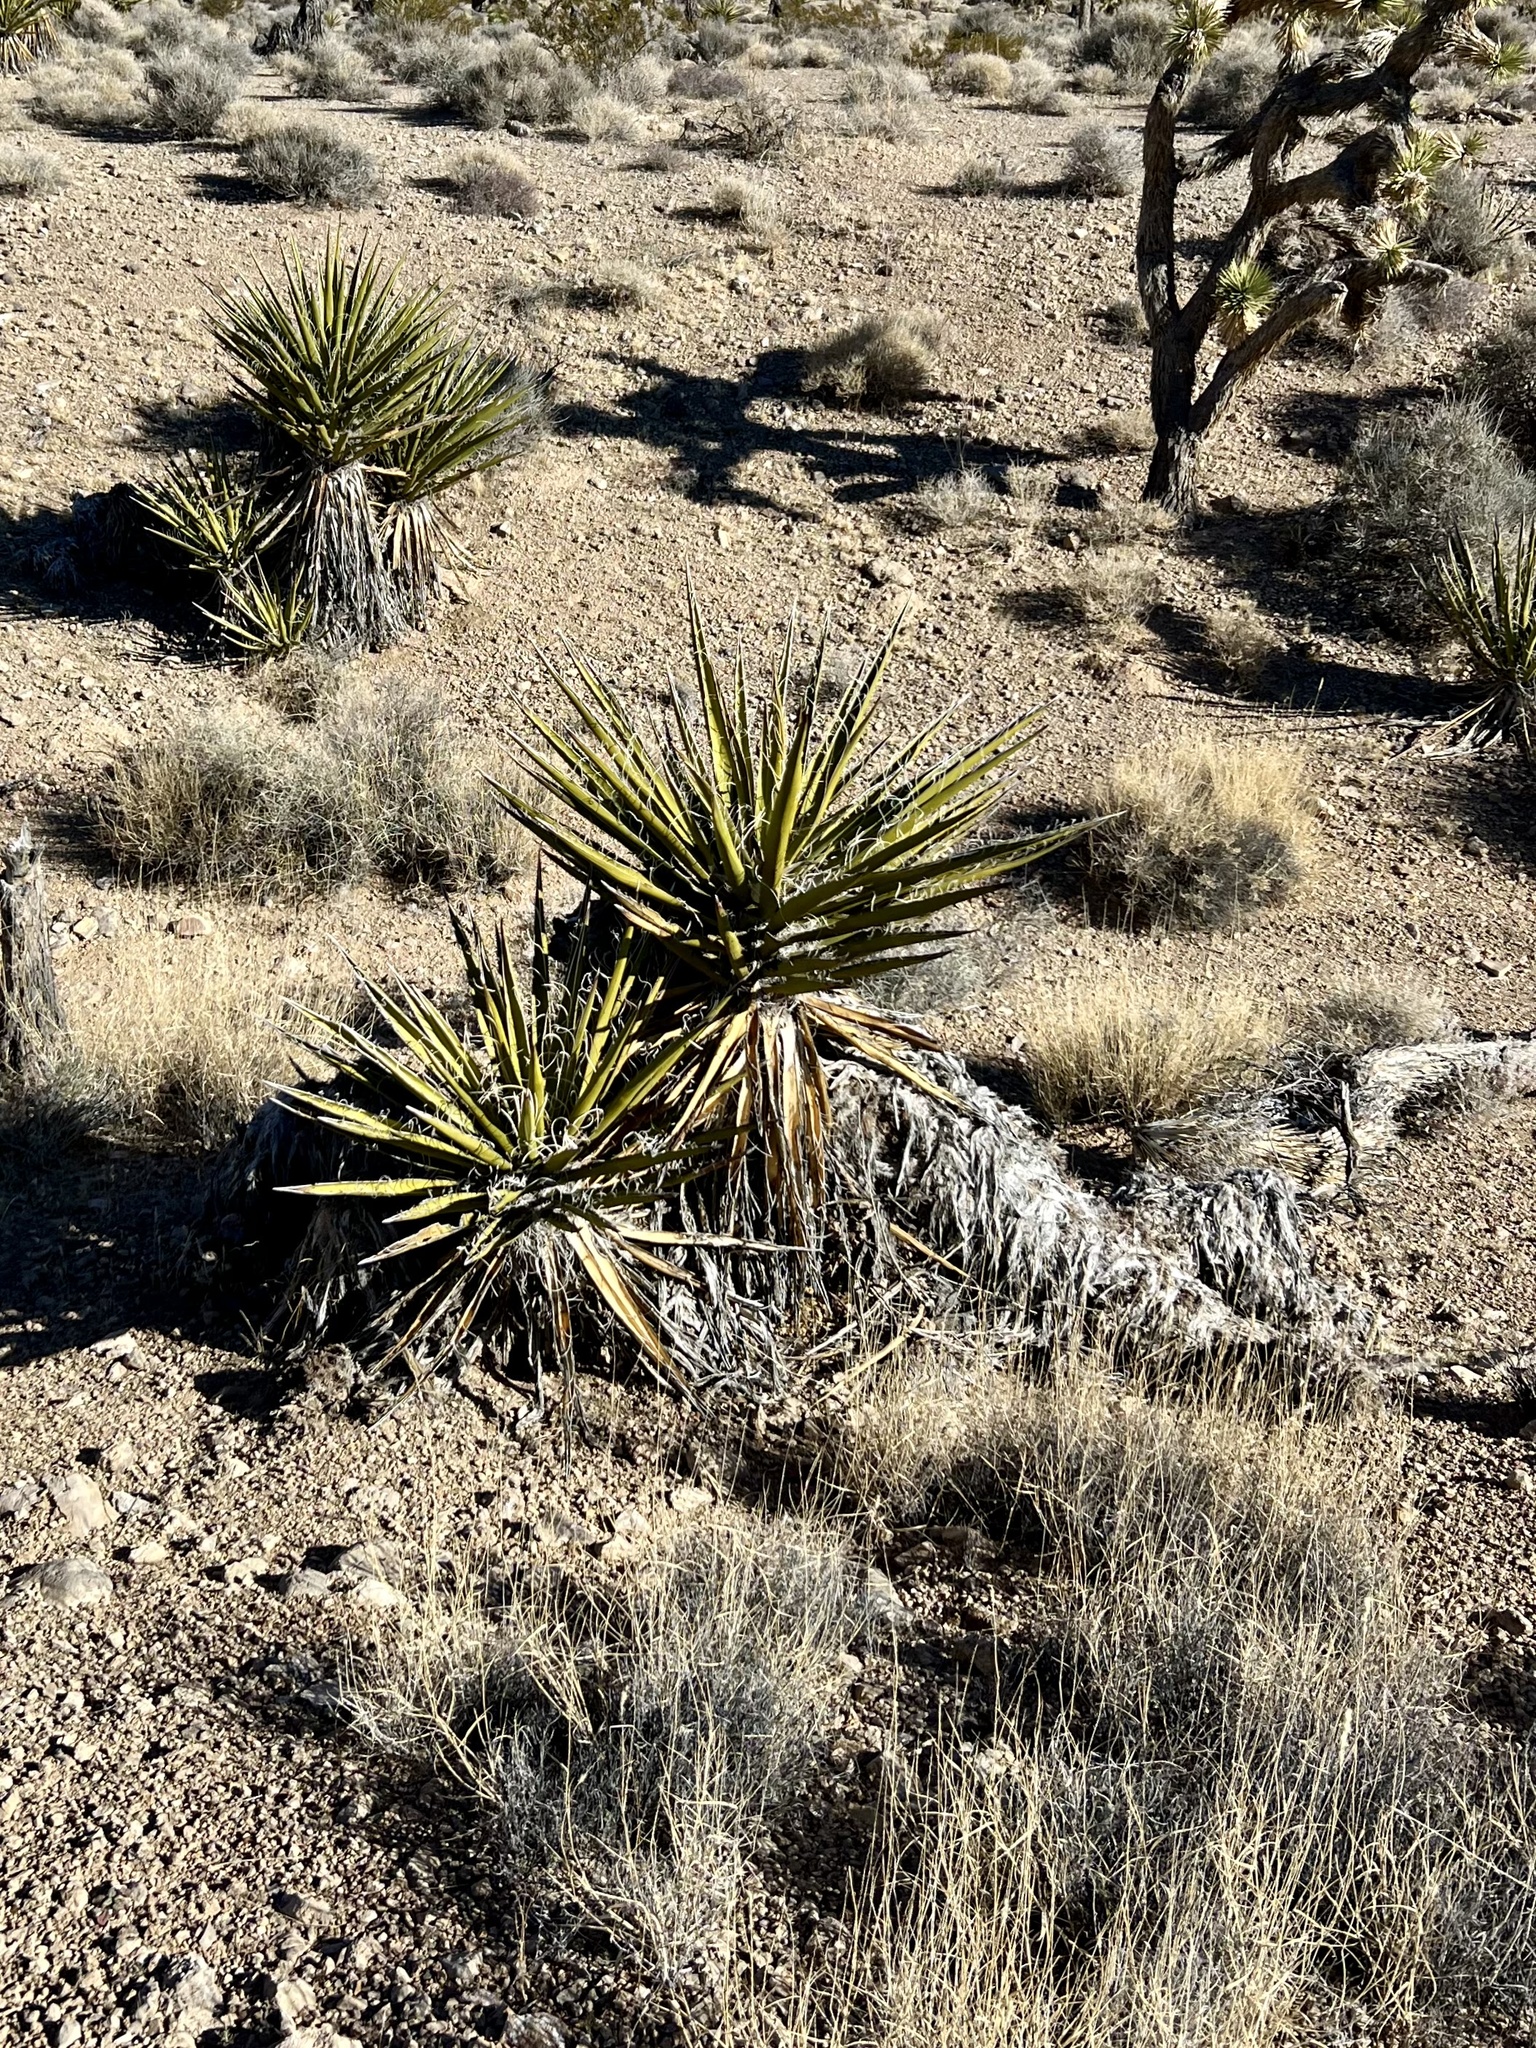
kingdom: Plantae
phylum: Tracheophyta
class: Liliopsida
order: Asparagales
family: Asparagaceae
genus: Yucca
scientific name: Yucca schidigera
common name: Mojave yucca
